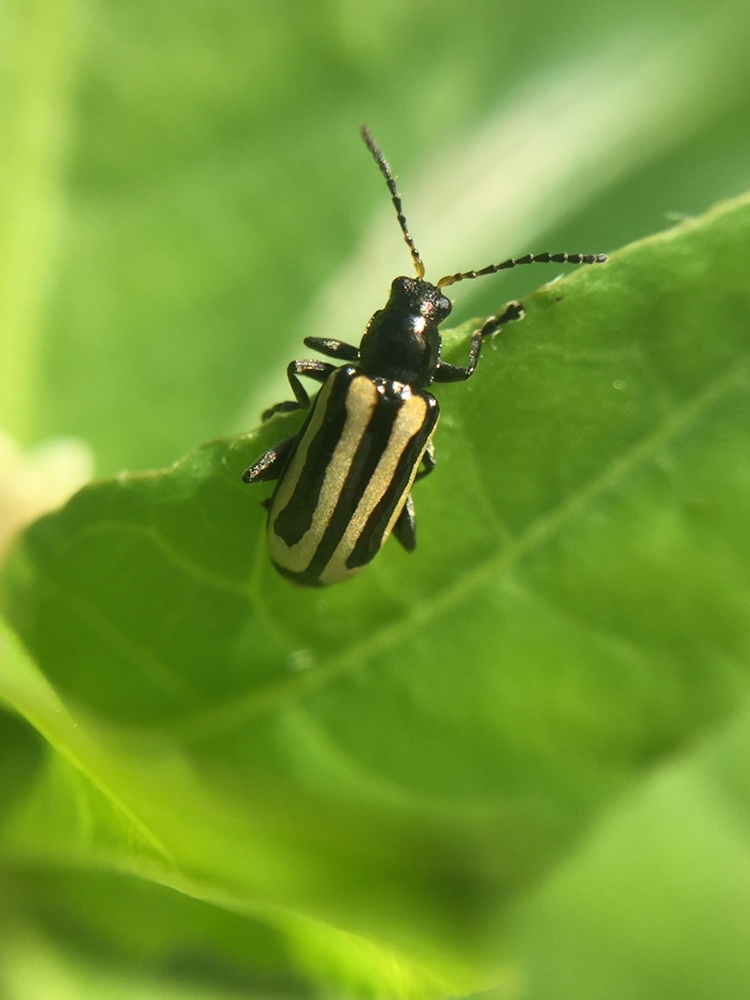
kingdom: Animalia
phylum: Arthropoda
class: Insecta
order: Coleoptera
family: Chrysomelidae
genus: Agasicles
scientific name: Agasicles hygrophila
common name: Alligatorweed flea beetle
